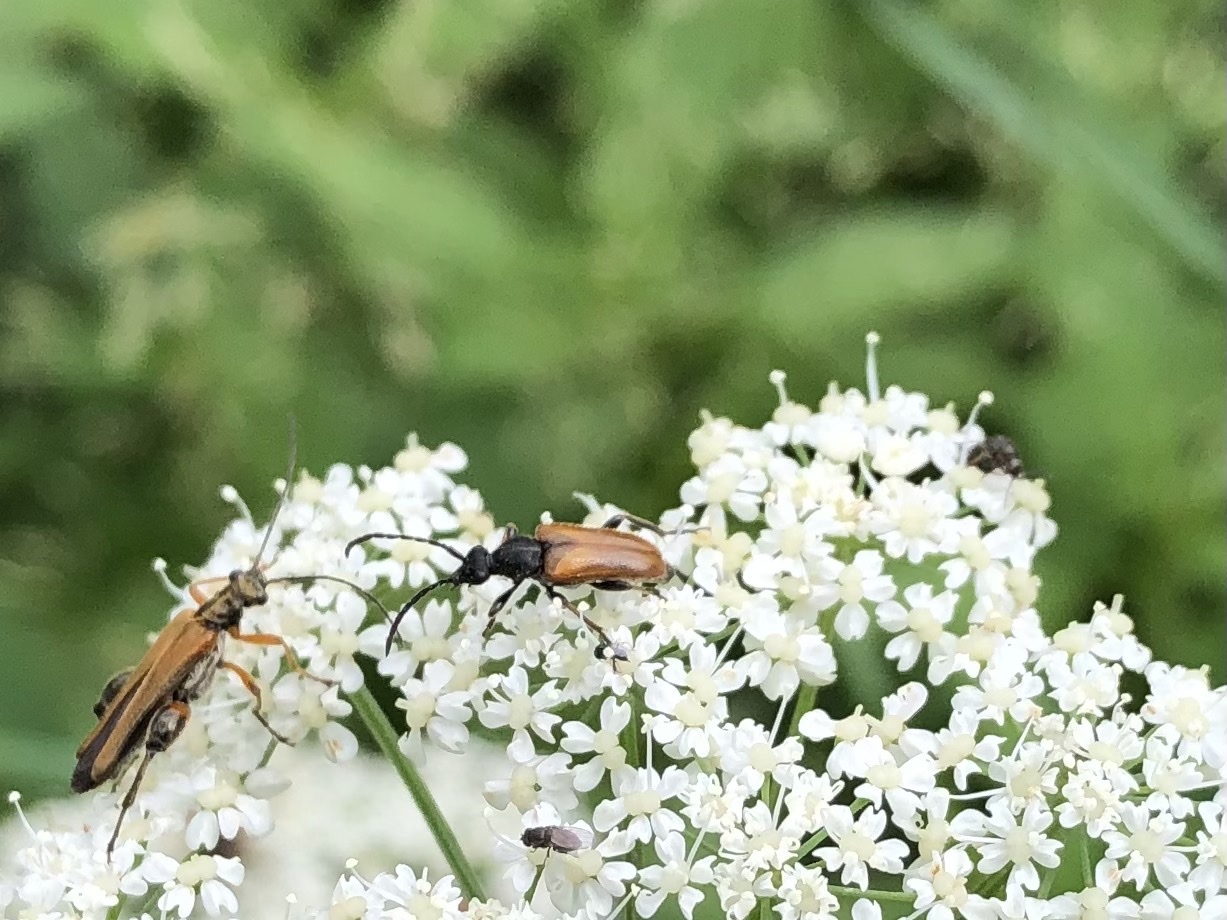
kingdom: Animalia
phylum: Arthropoda
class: Insecta
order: Coleoptera
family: Cerambycidae
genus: Pseudovadonia
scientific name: Pseudovadonia livida
